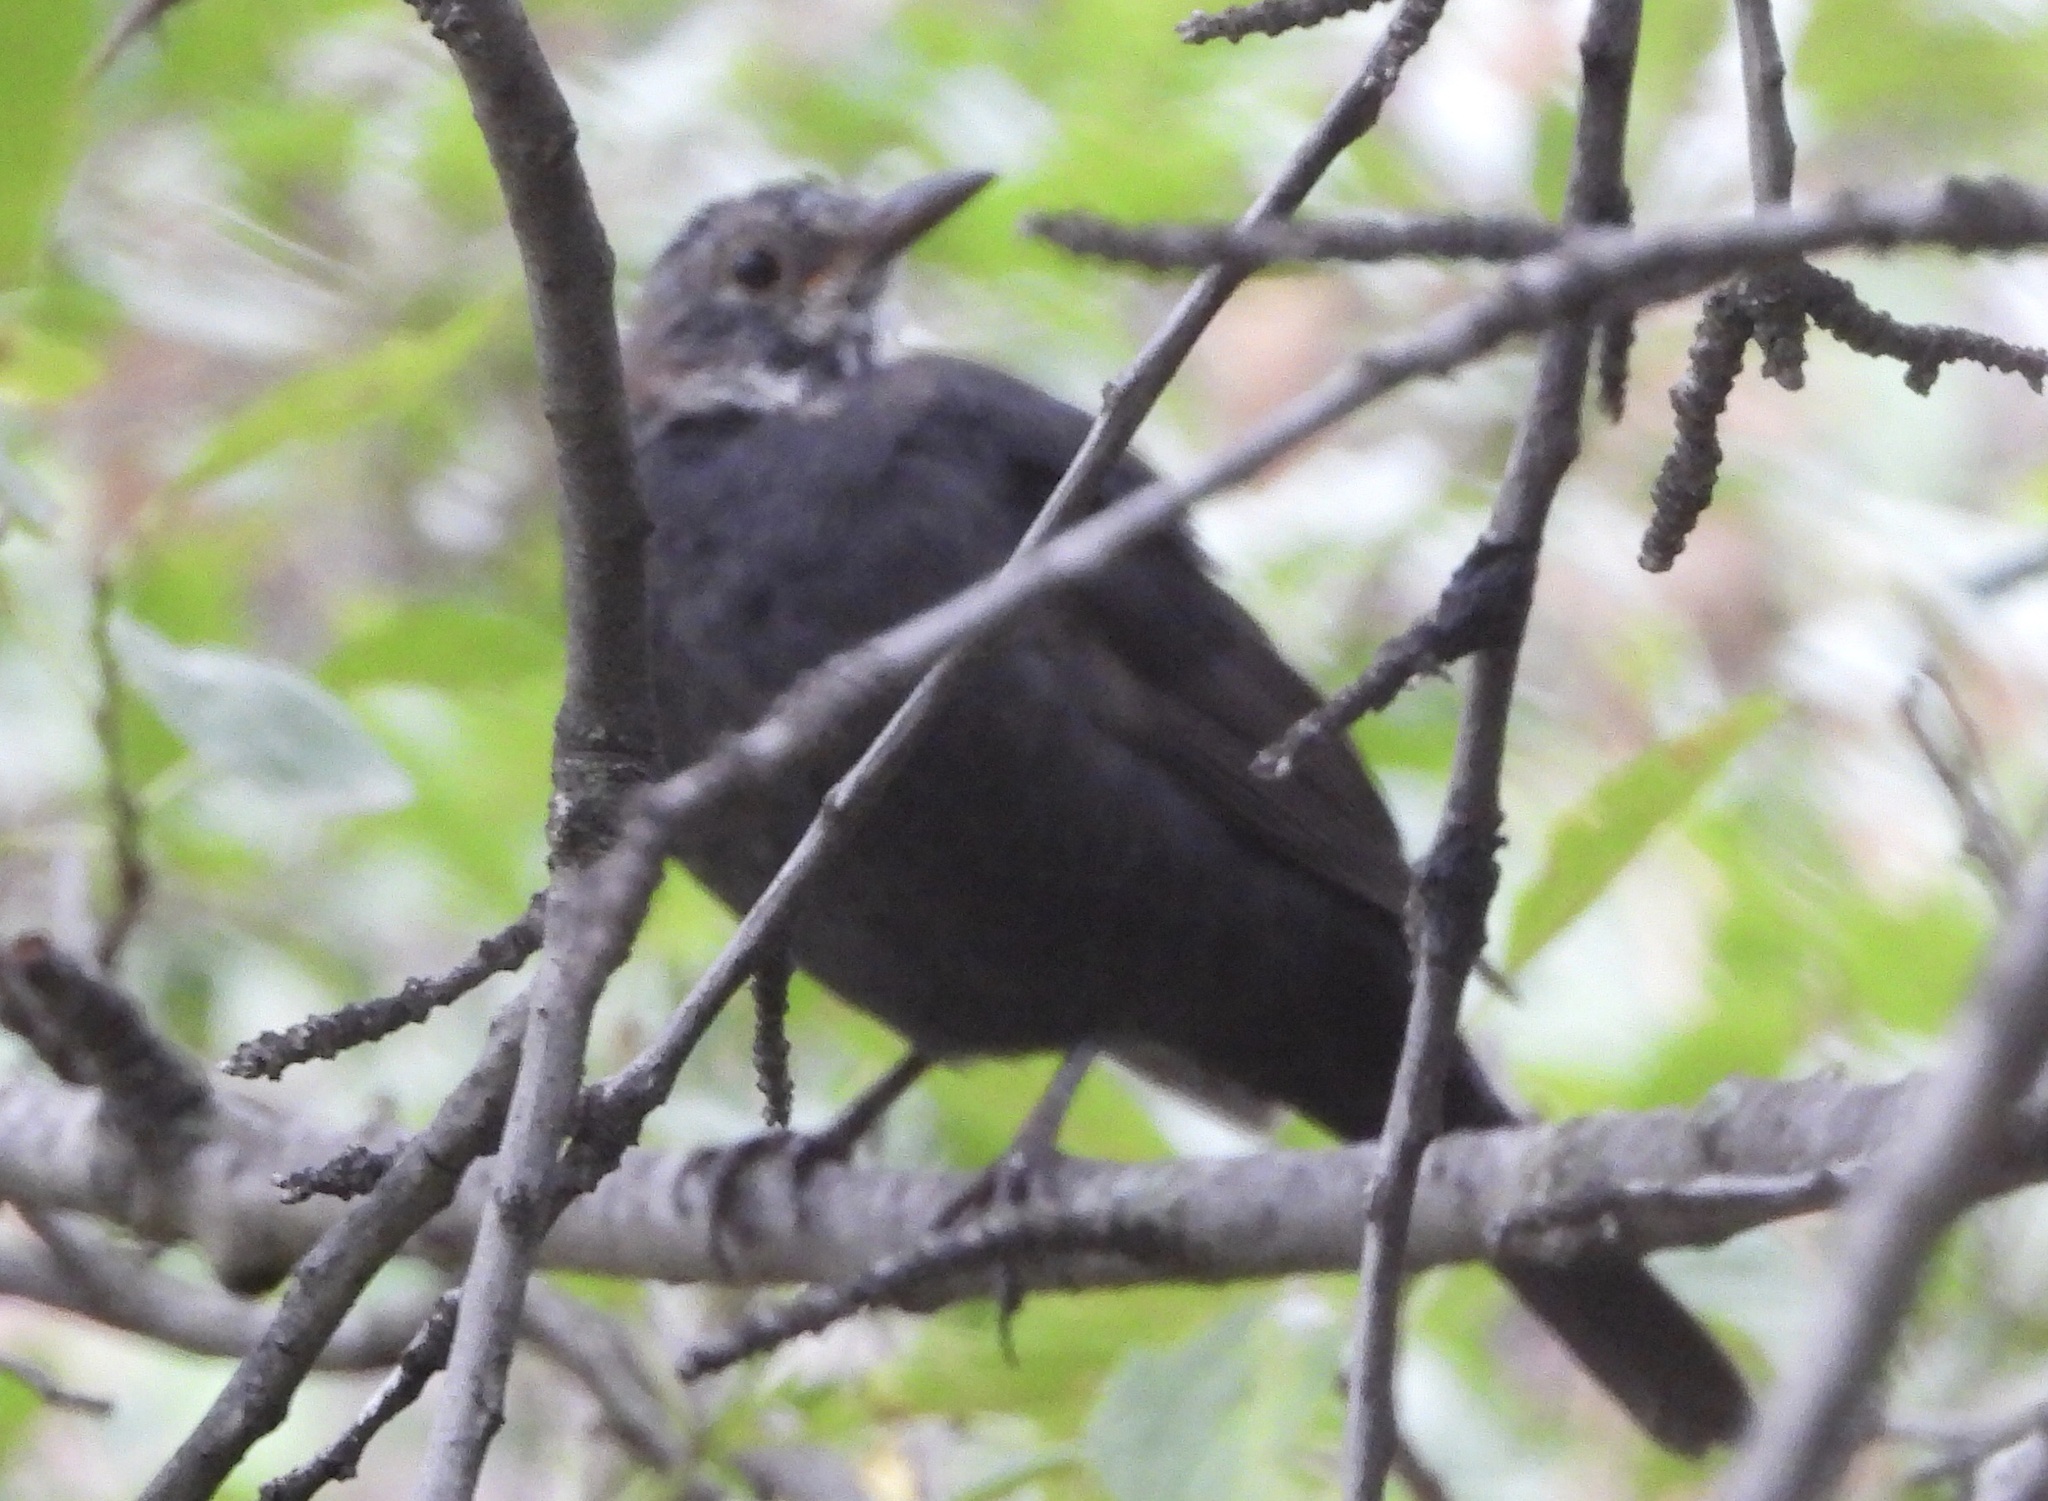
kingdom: Animalia
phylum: Chordata
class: Aves
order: Passeriformes
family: Turdidae
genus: Turdus
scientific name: Turdus merula
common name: Common blackbird
